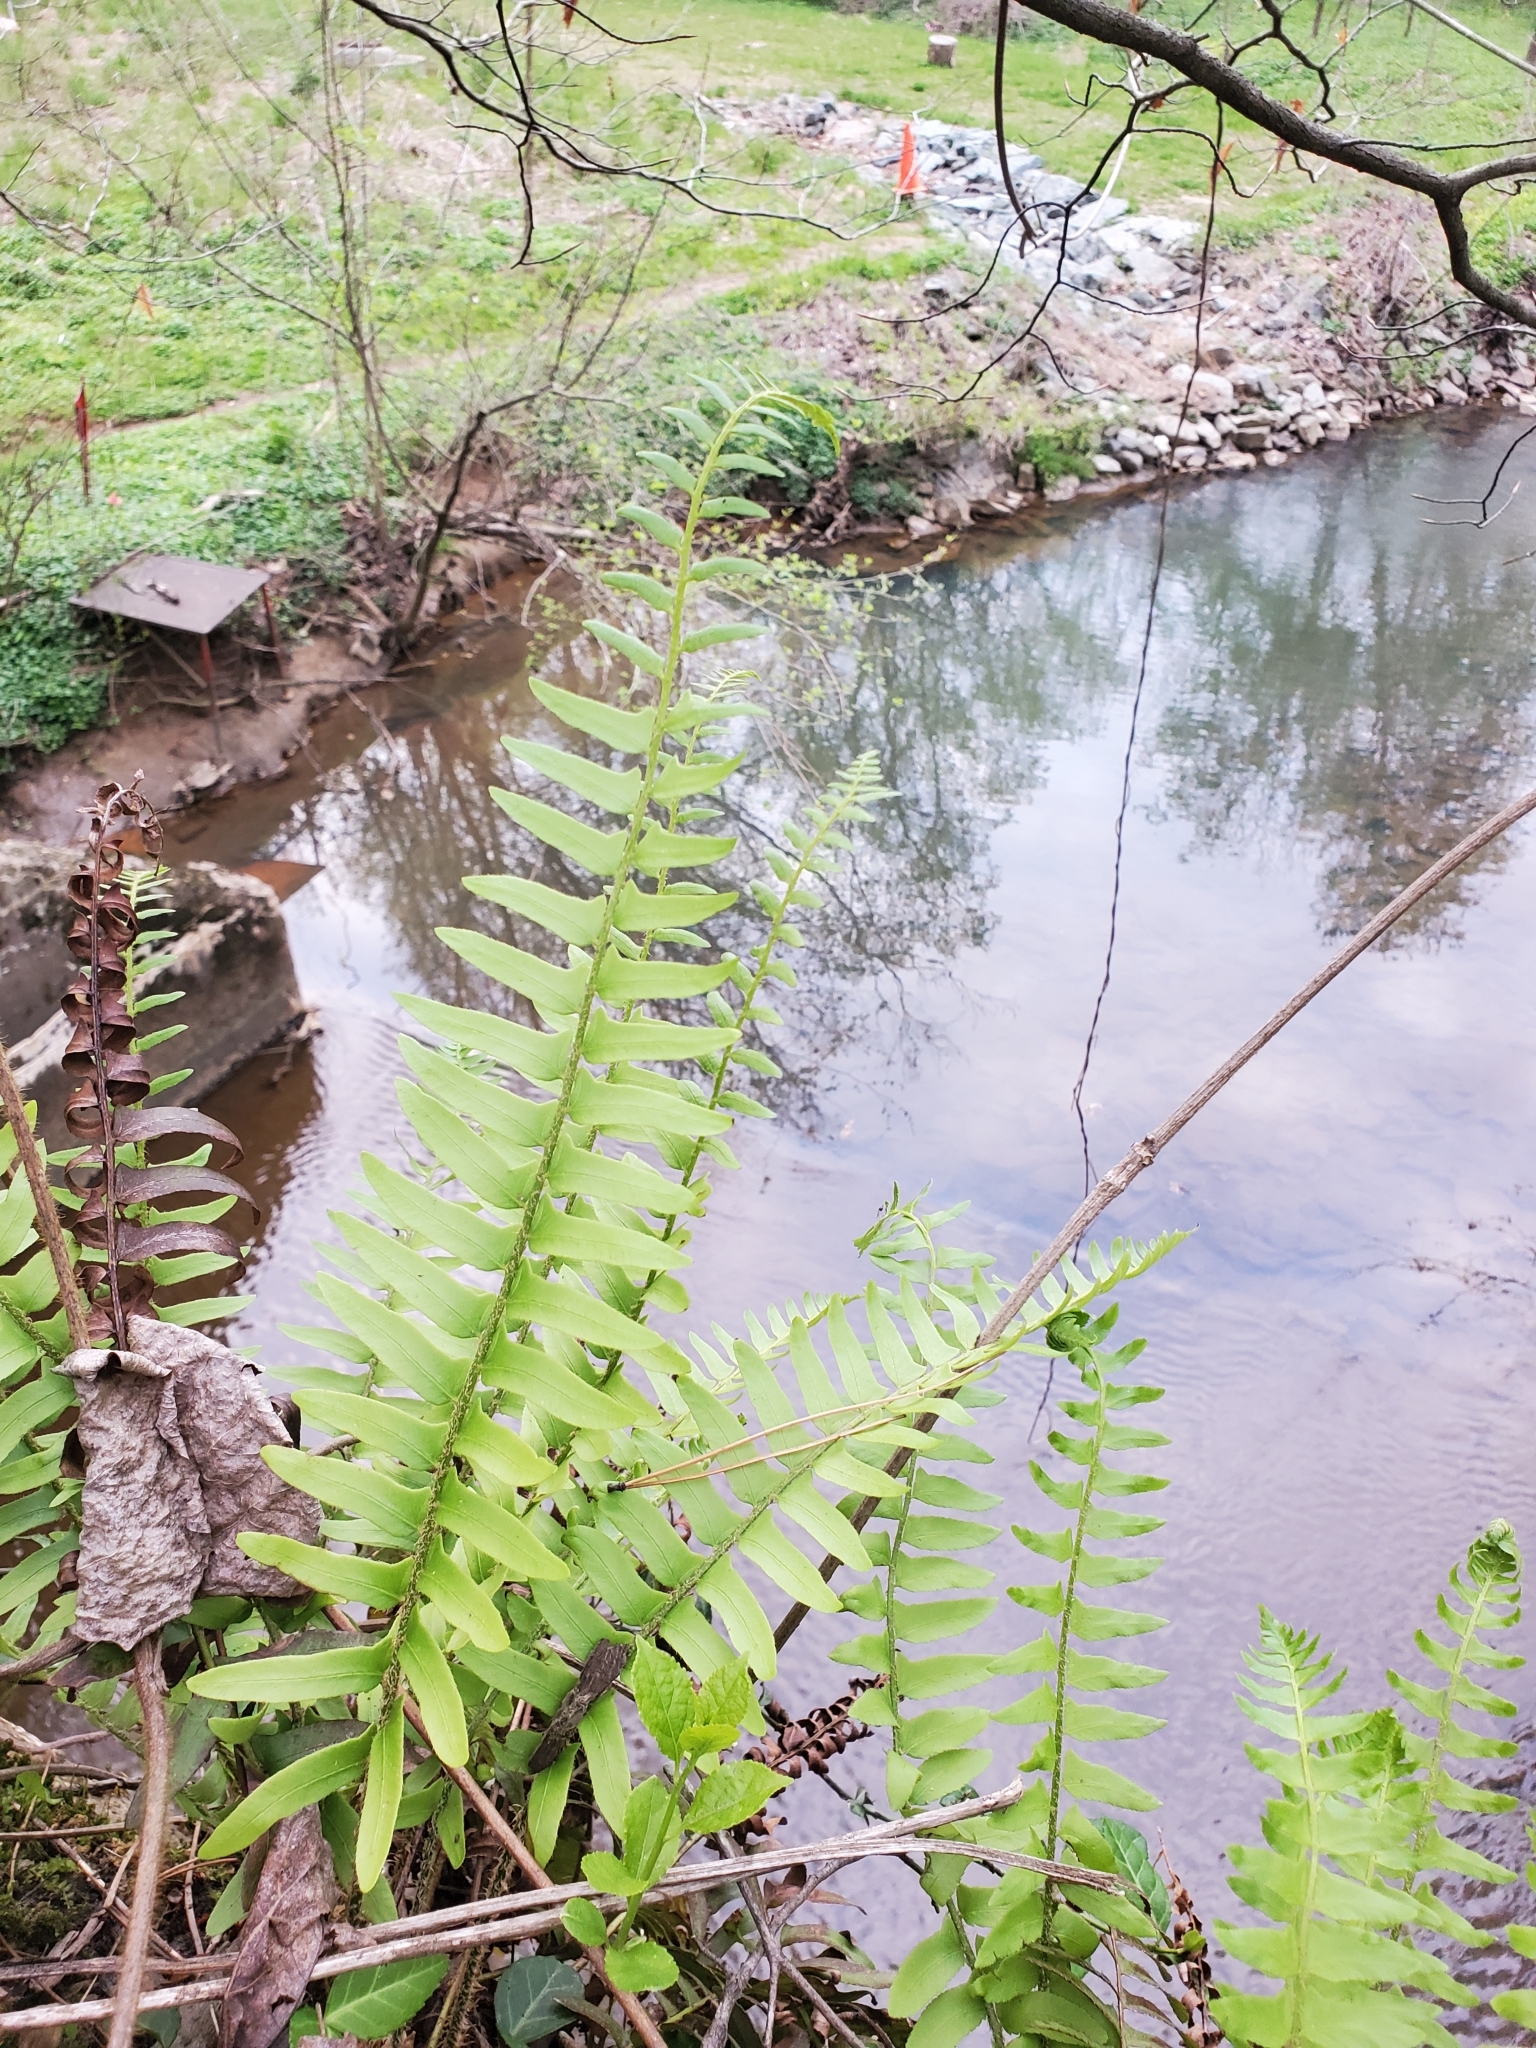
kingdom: Plantae
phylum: Tracheophyta
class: Polypodiopsida
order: Polypodiales
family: Dryopteridaceae
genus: Polystichum
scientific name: Polystichum acrostichoides
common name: Christmas fern
